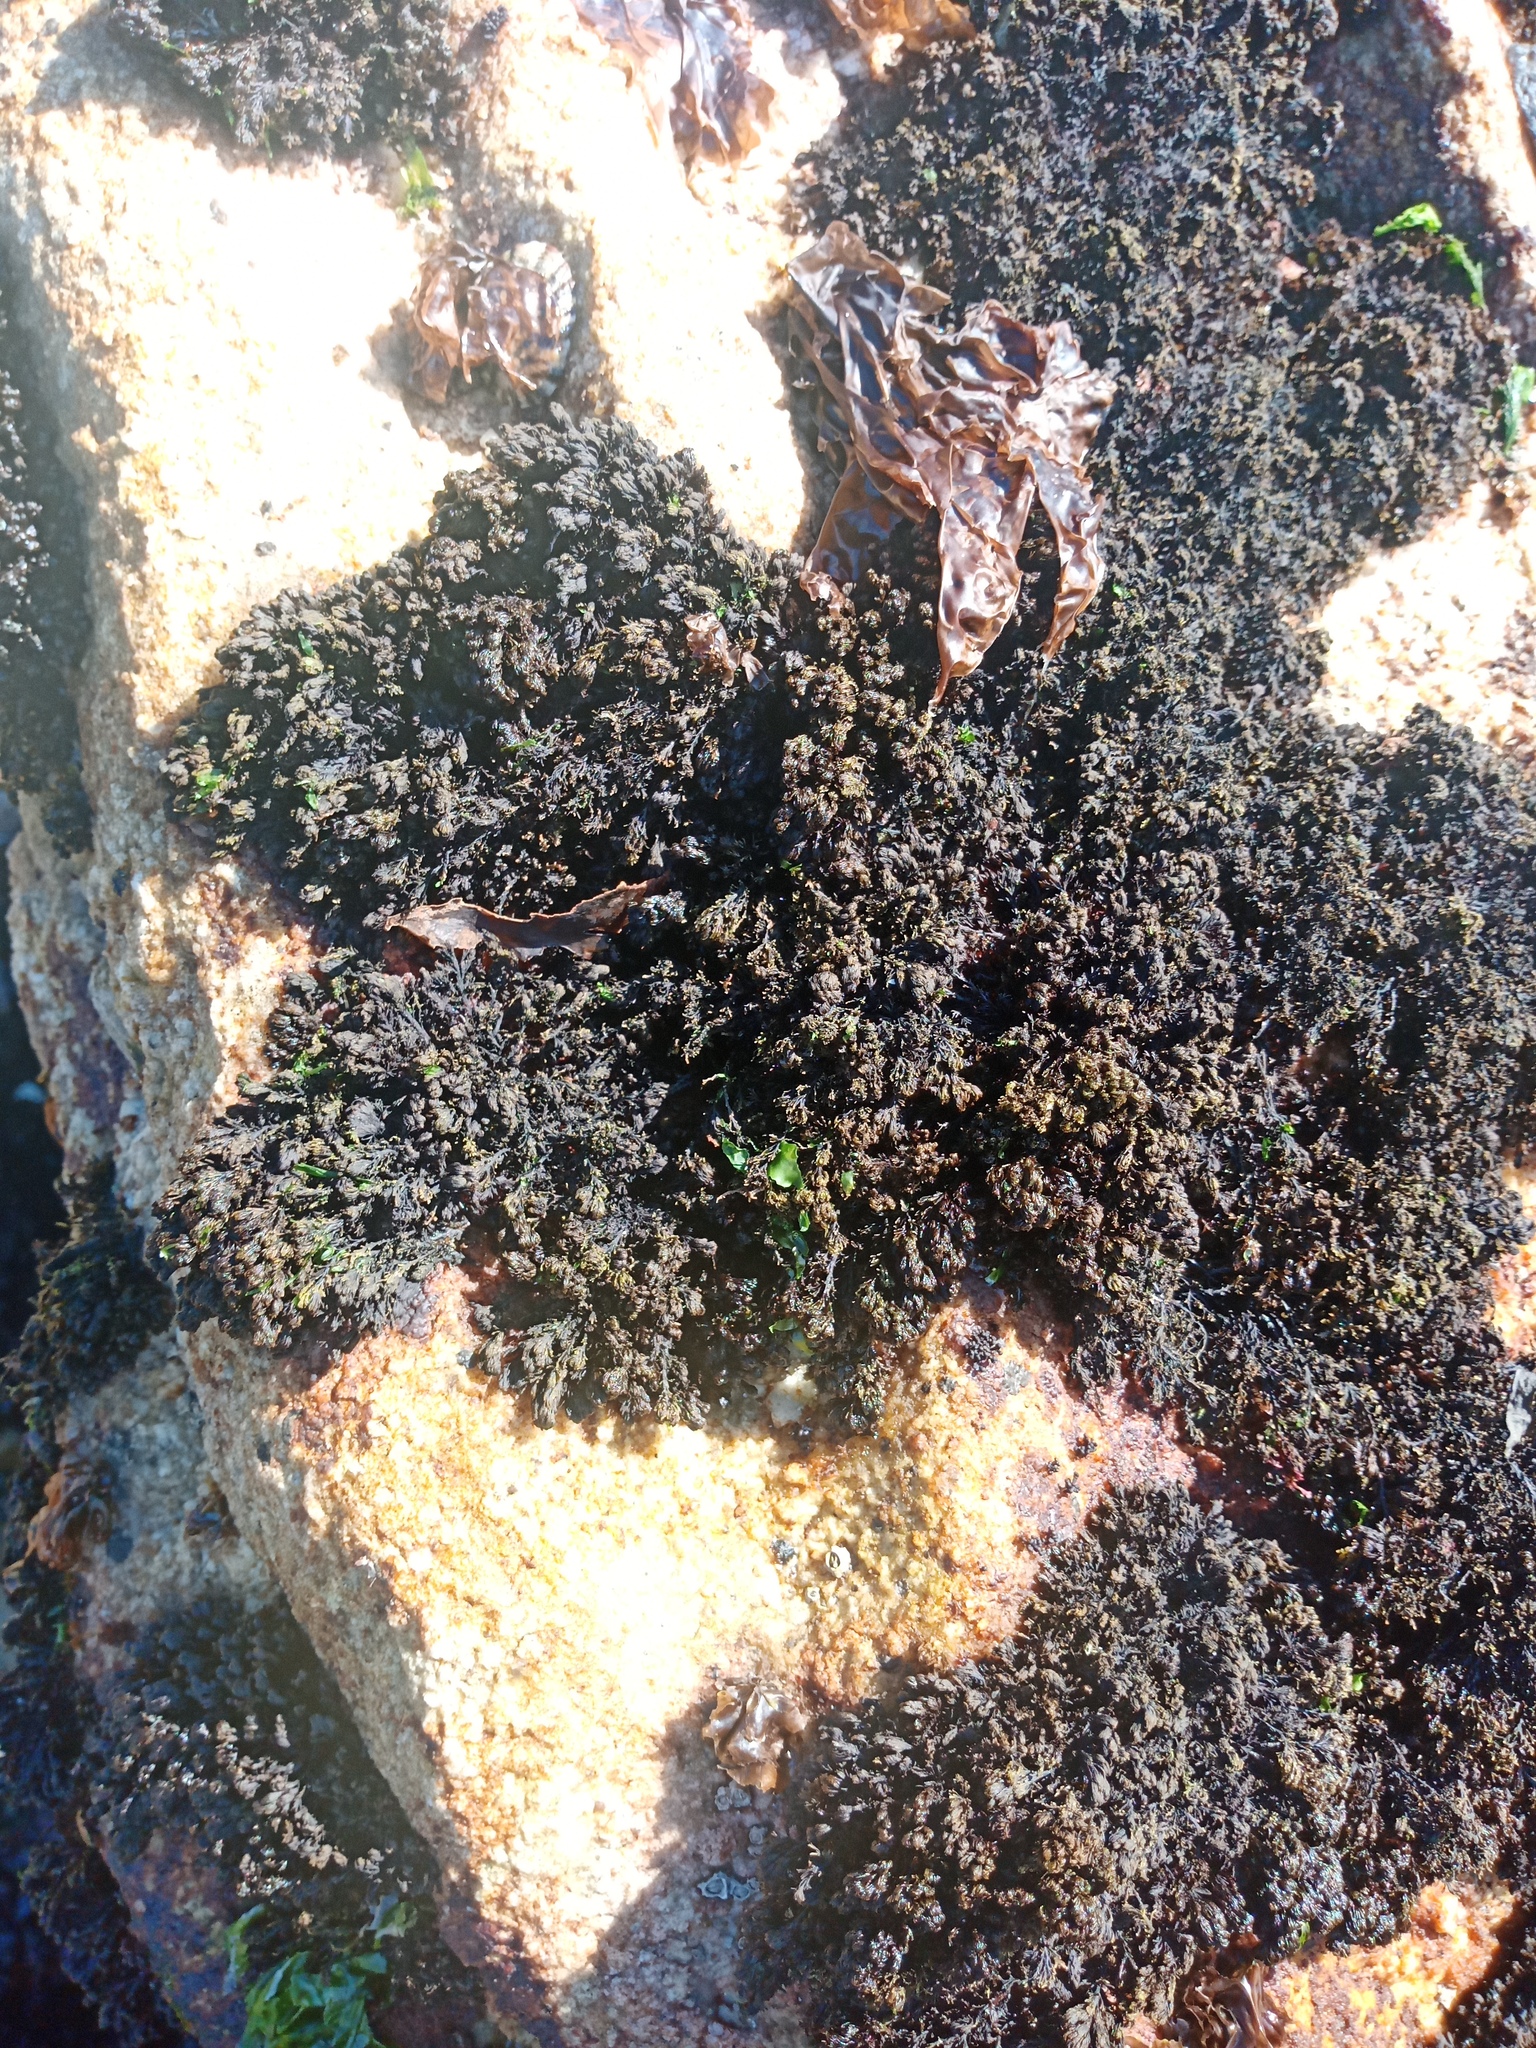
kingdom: Plantae
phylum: Rhodophyta
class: Florideophyceae
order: Ceramiales
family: Rhodomelaceae
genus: Bostrychia
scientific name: Bostrychia arbuscula
